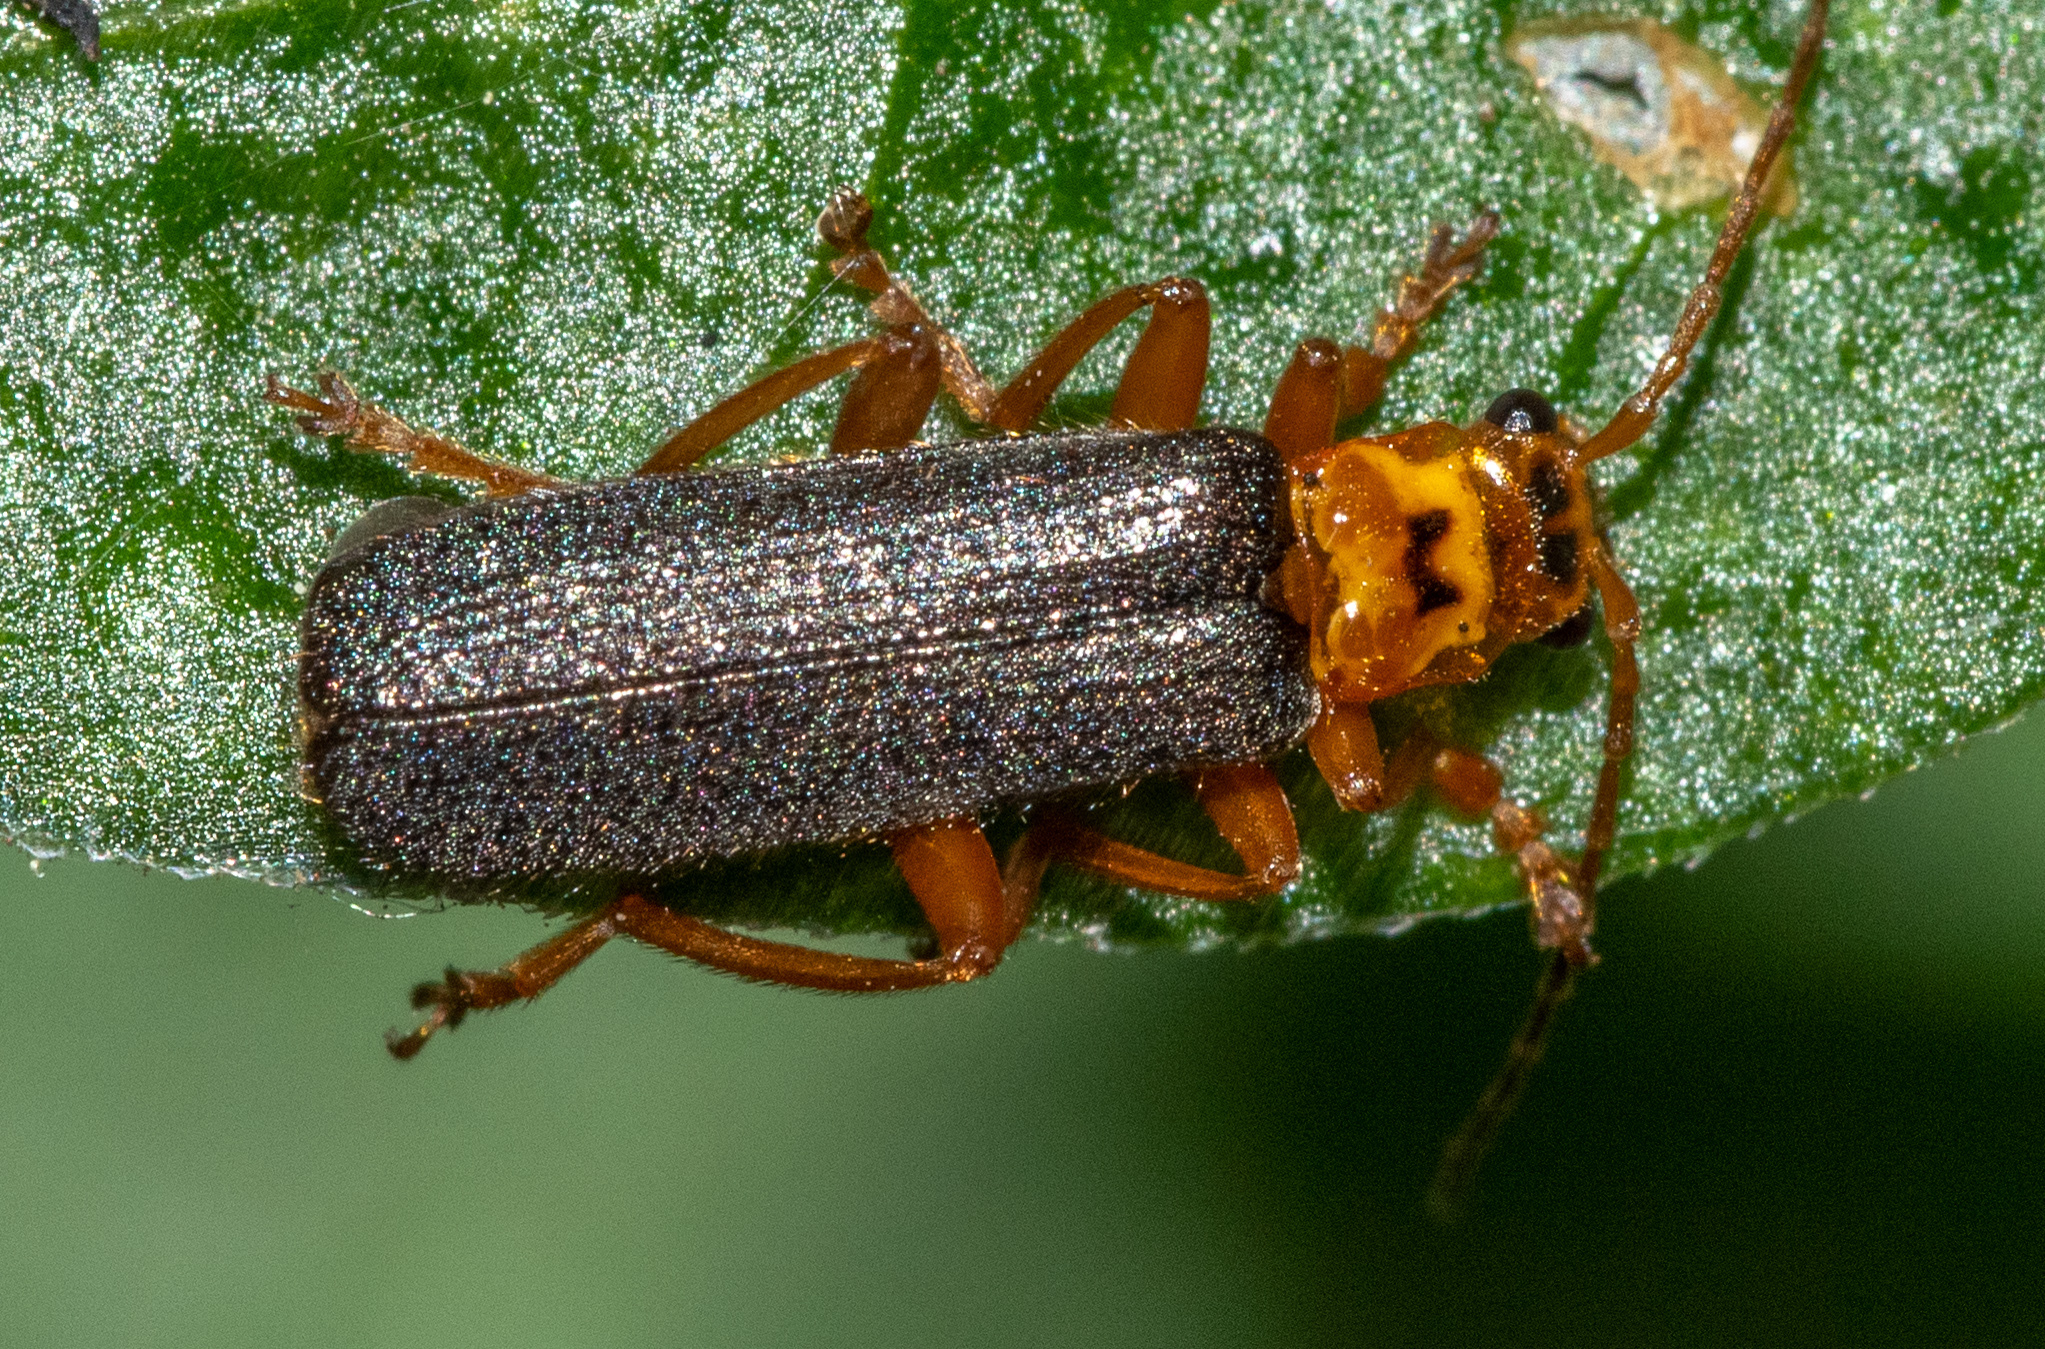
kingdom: Animalia
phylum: Arthropoda
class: Insecta
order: Coleoptera
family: Cantharidae
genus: Cultellunguis
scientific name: Cultellunguis americanus
